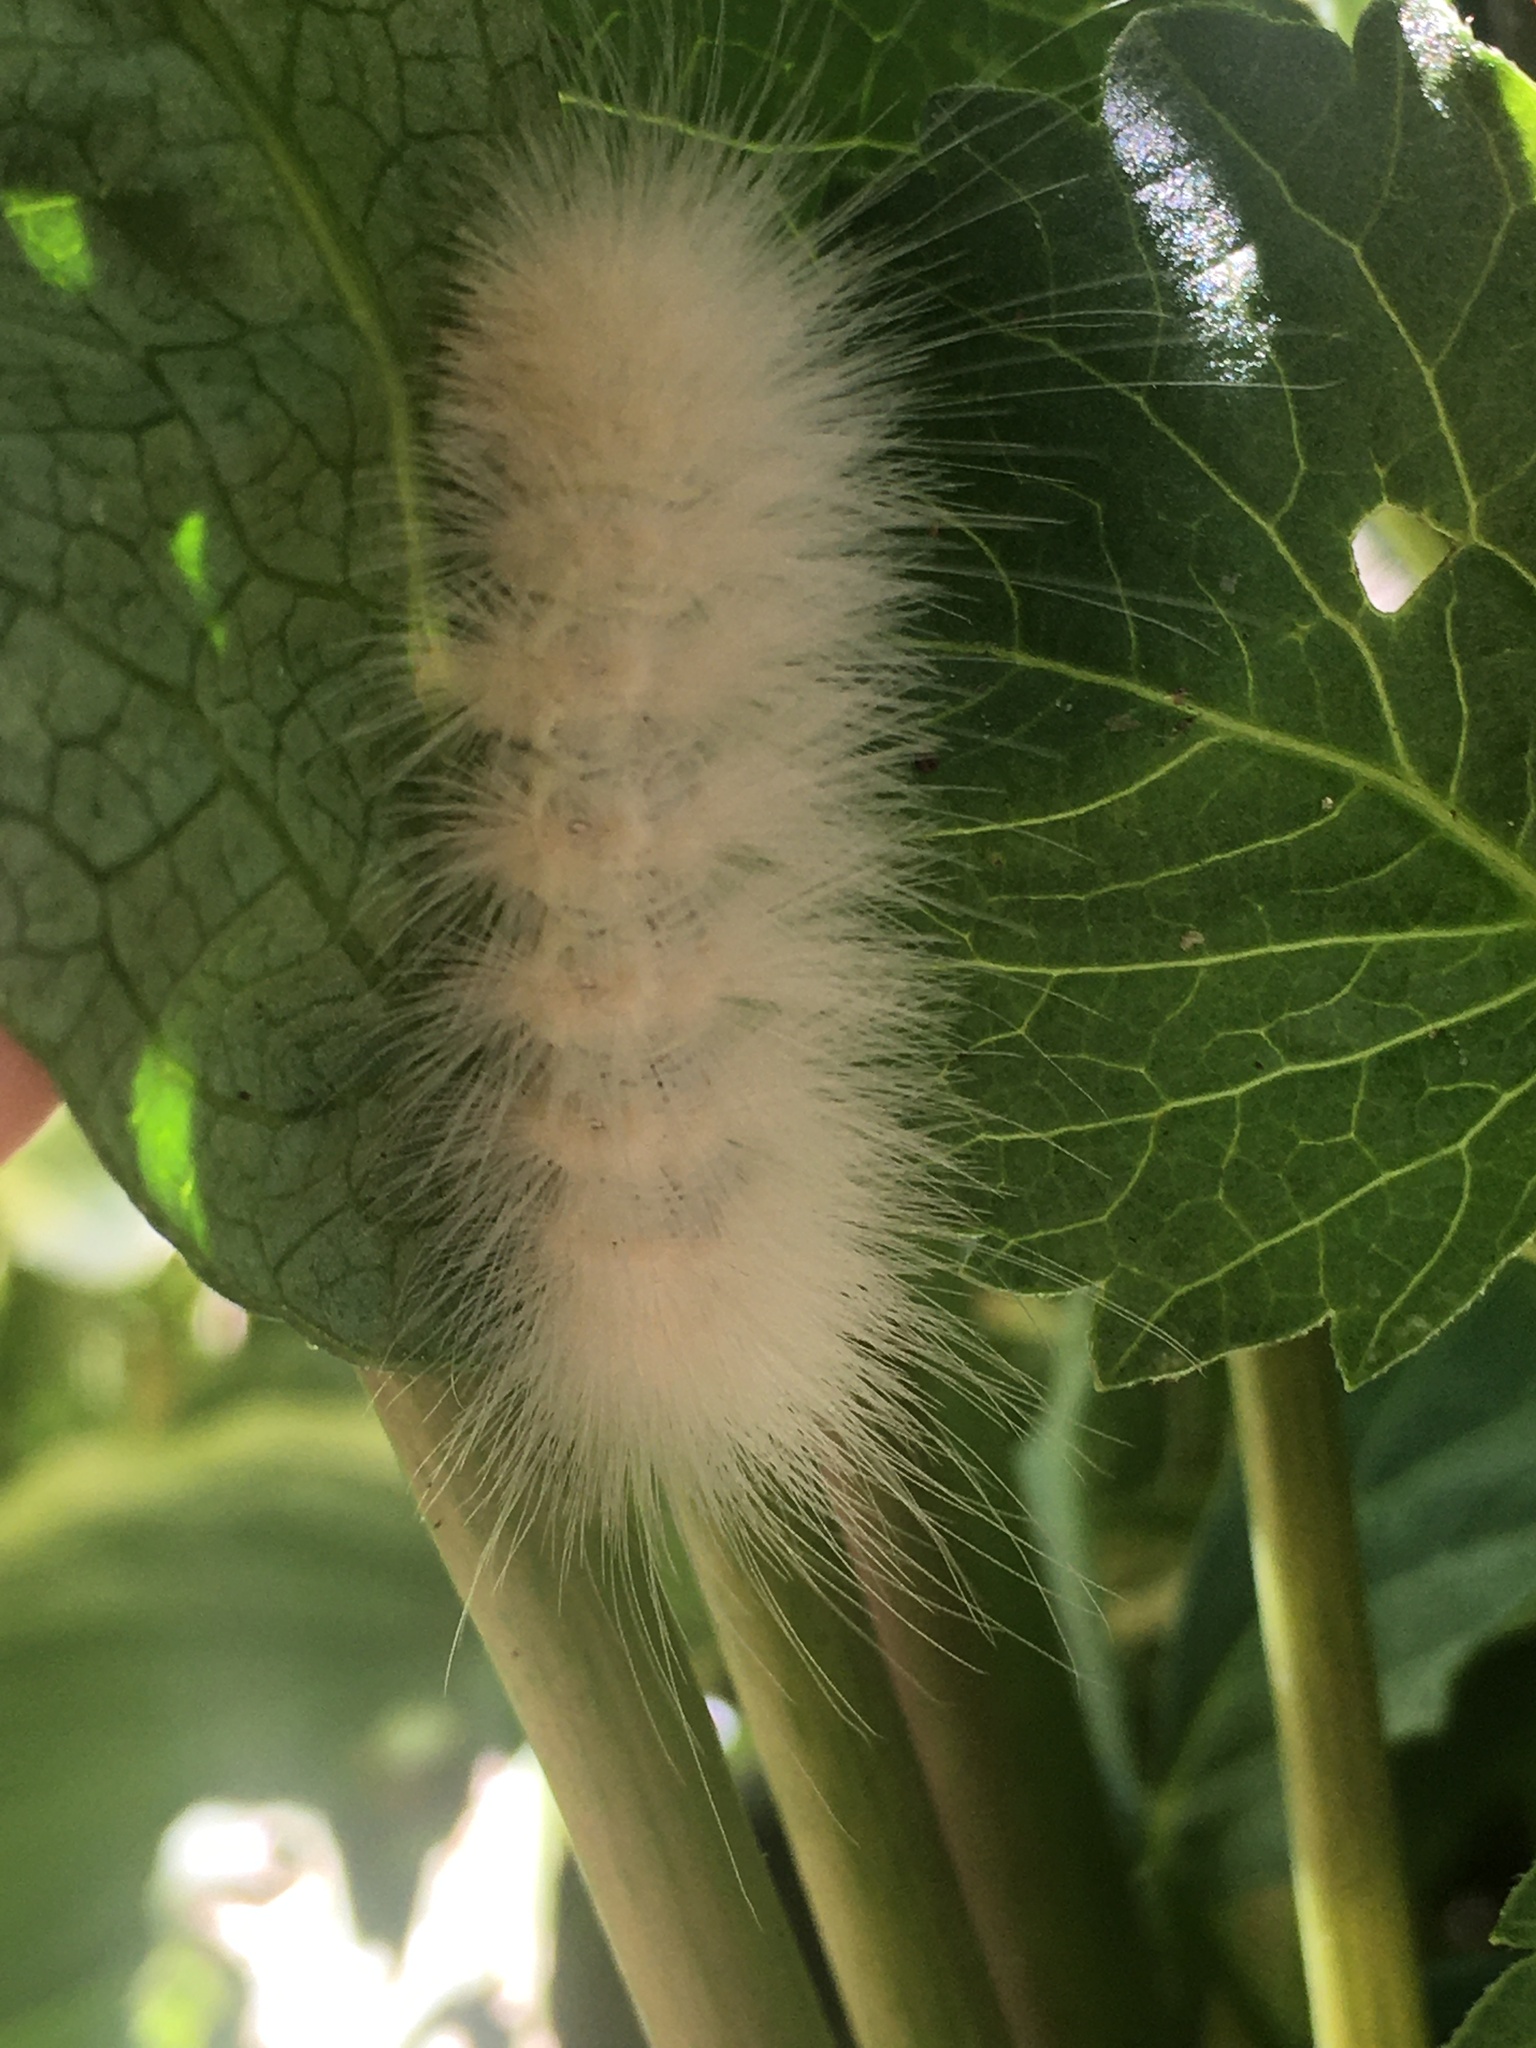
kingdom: Animalia
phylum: Arthropoda
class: Insecta
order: Lepidoptera
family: Erebidae
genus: Spilosoma
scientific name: Spilosoma virginica
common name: Virginia tiger moth
